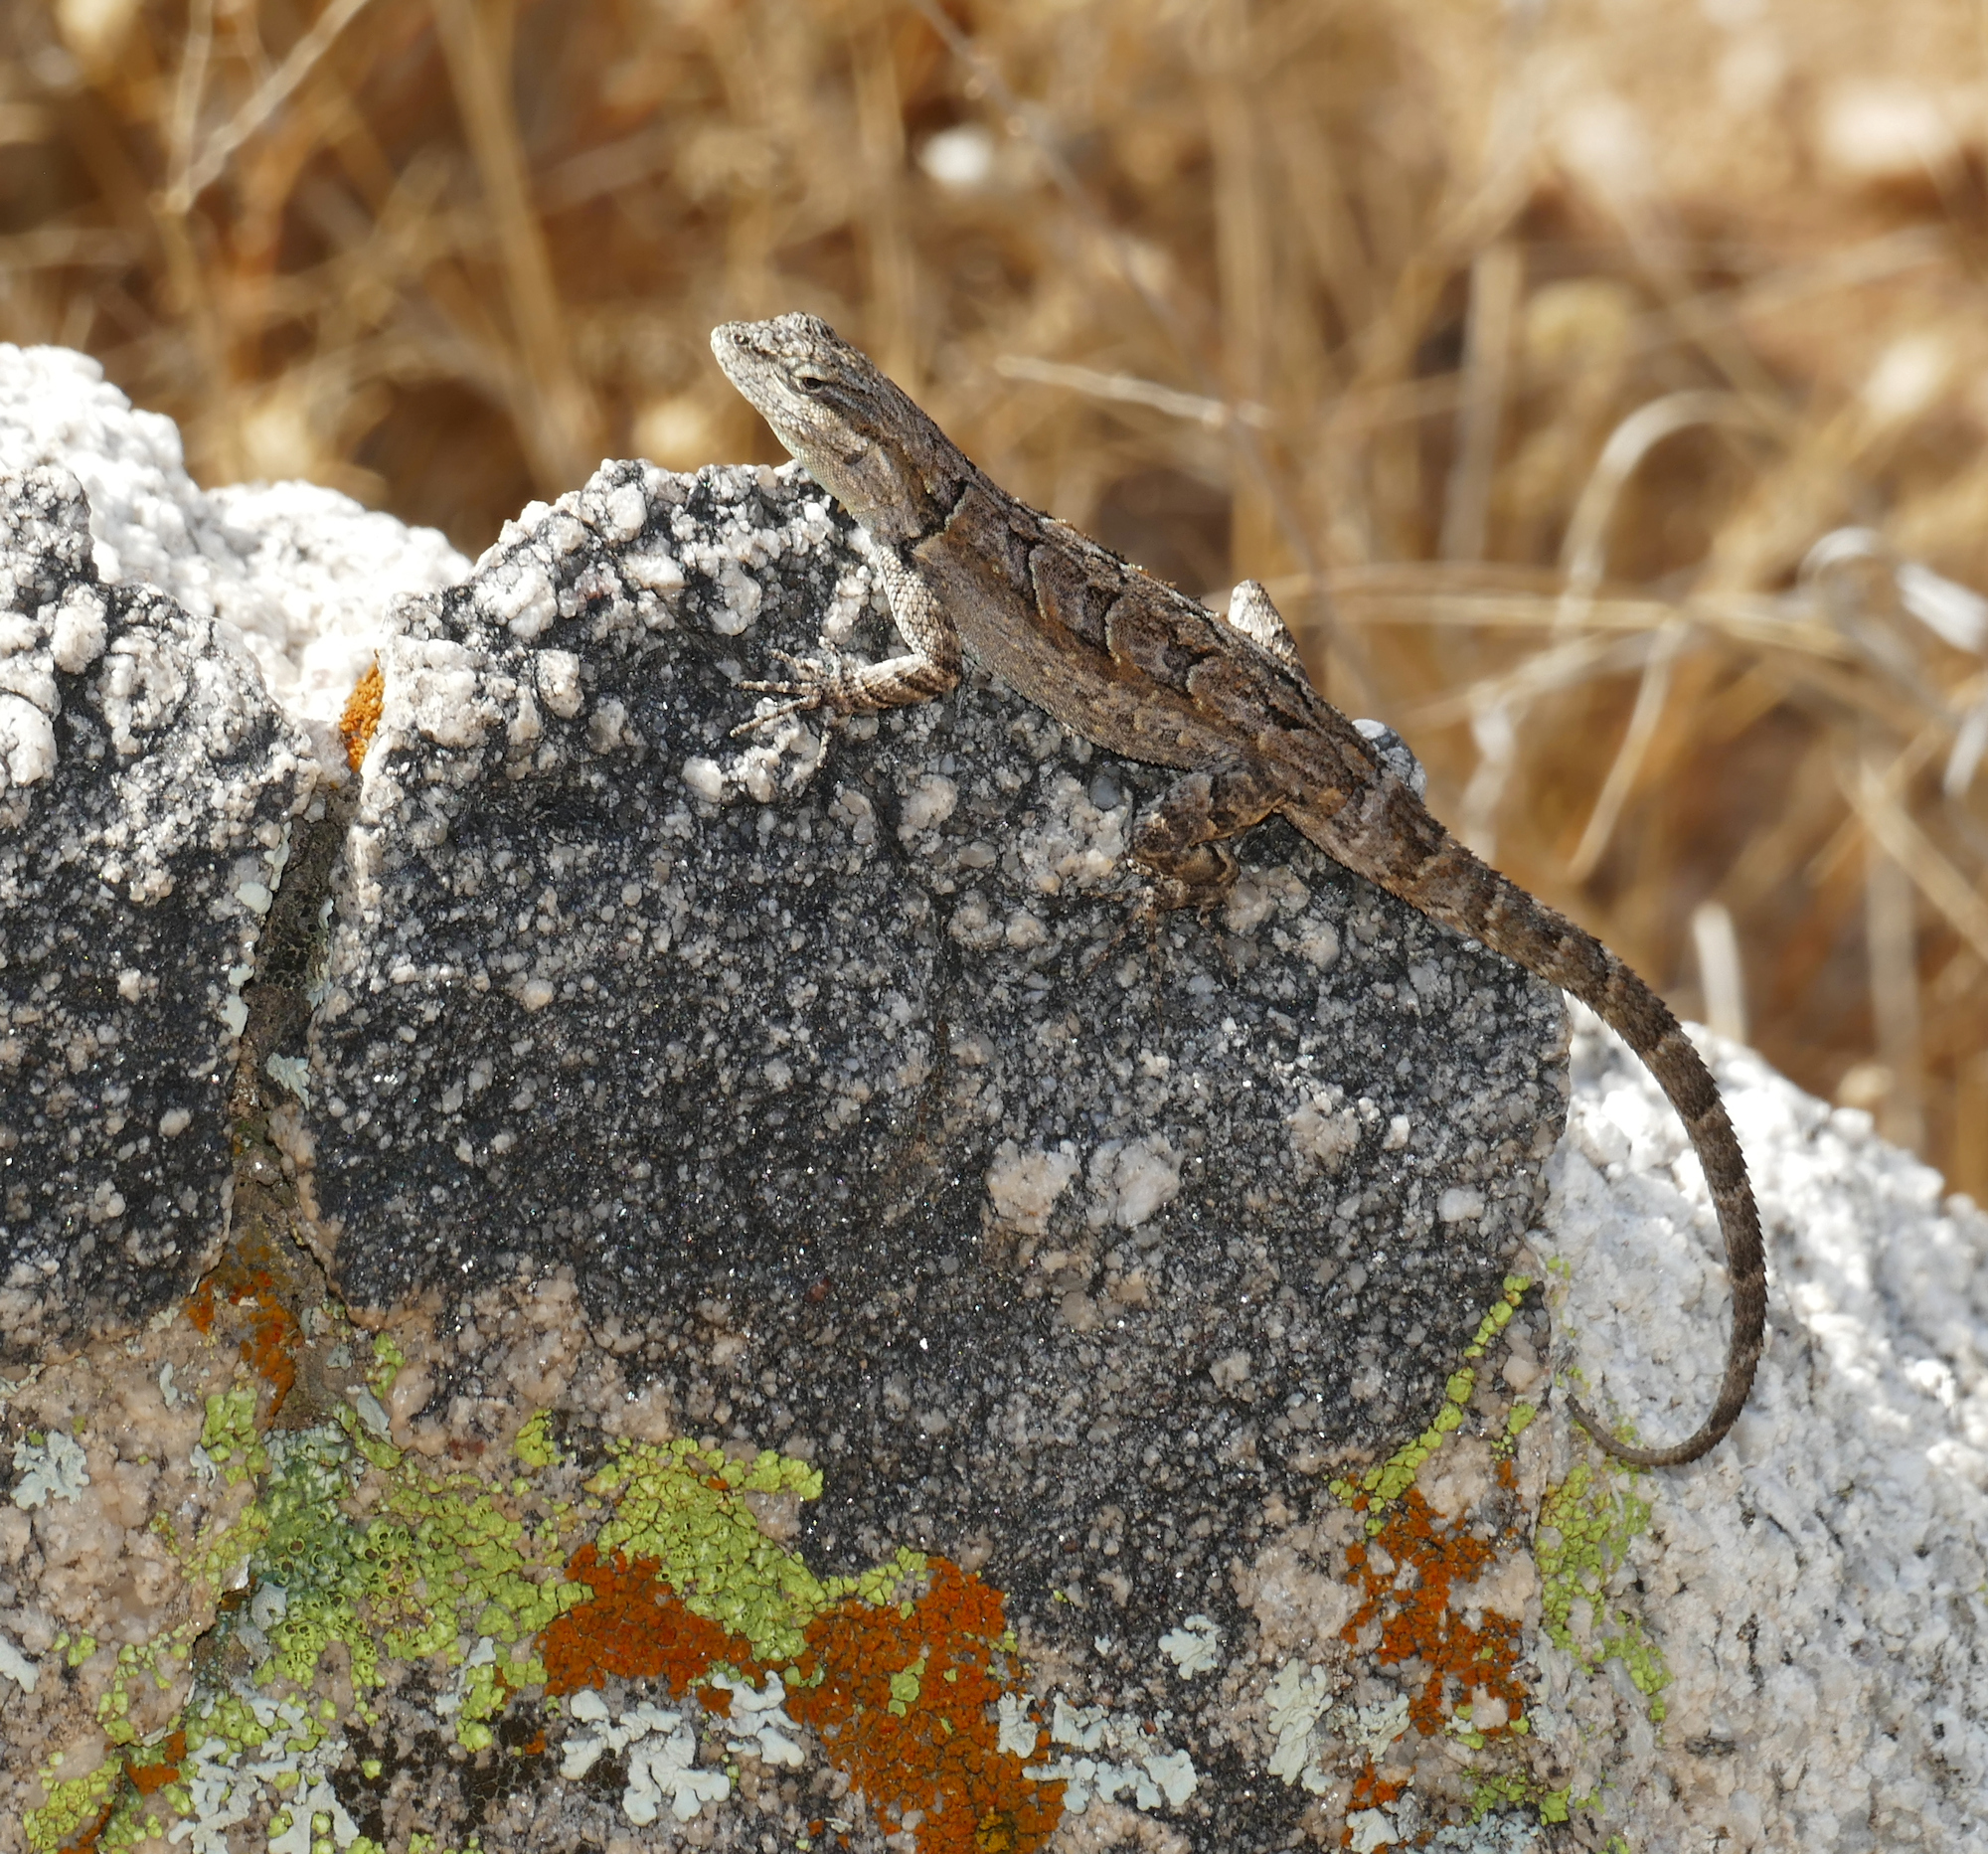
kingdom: Animalia
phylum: Chordata
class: Squamata
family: Phrynosomatidae
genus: Urosaurus
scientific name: Urosaurus ornatus
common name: Ornate tree lizard
